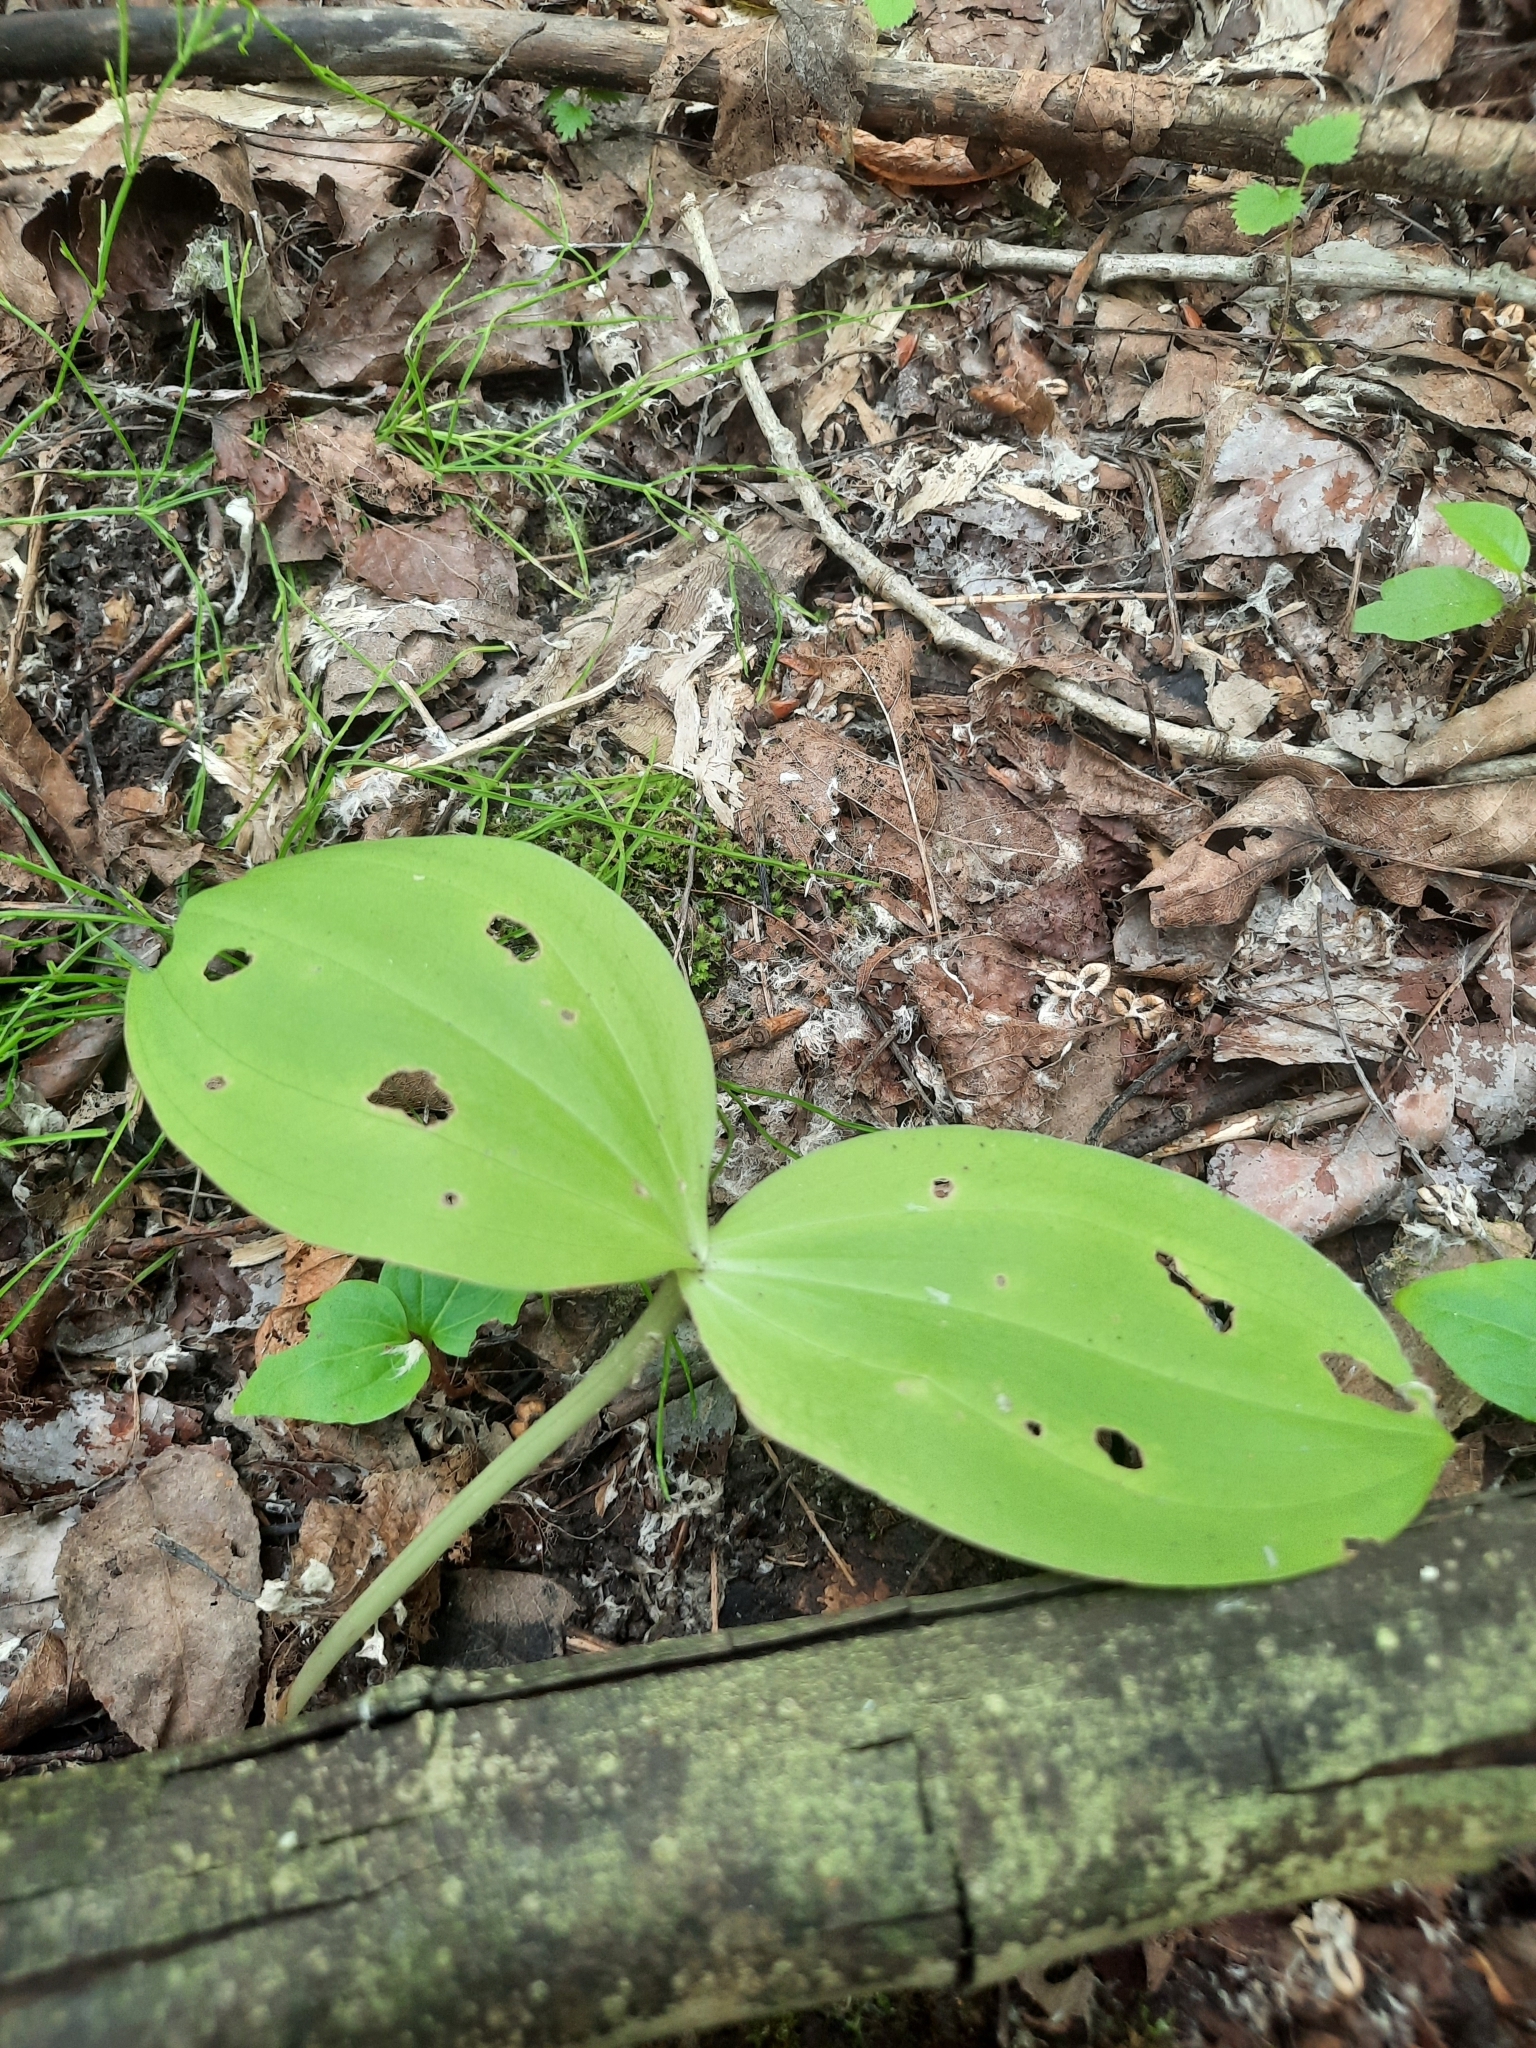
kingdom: Plantae
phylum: Tracheophyta
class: Liliopsida
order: Asparagales
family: Orchidaceae
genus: Neottia
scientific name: Neottia ovata
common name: Common twayblade
